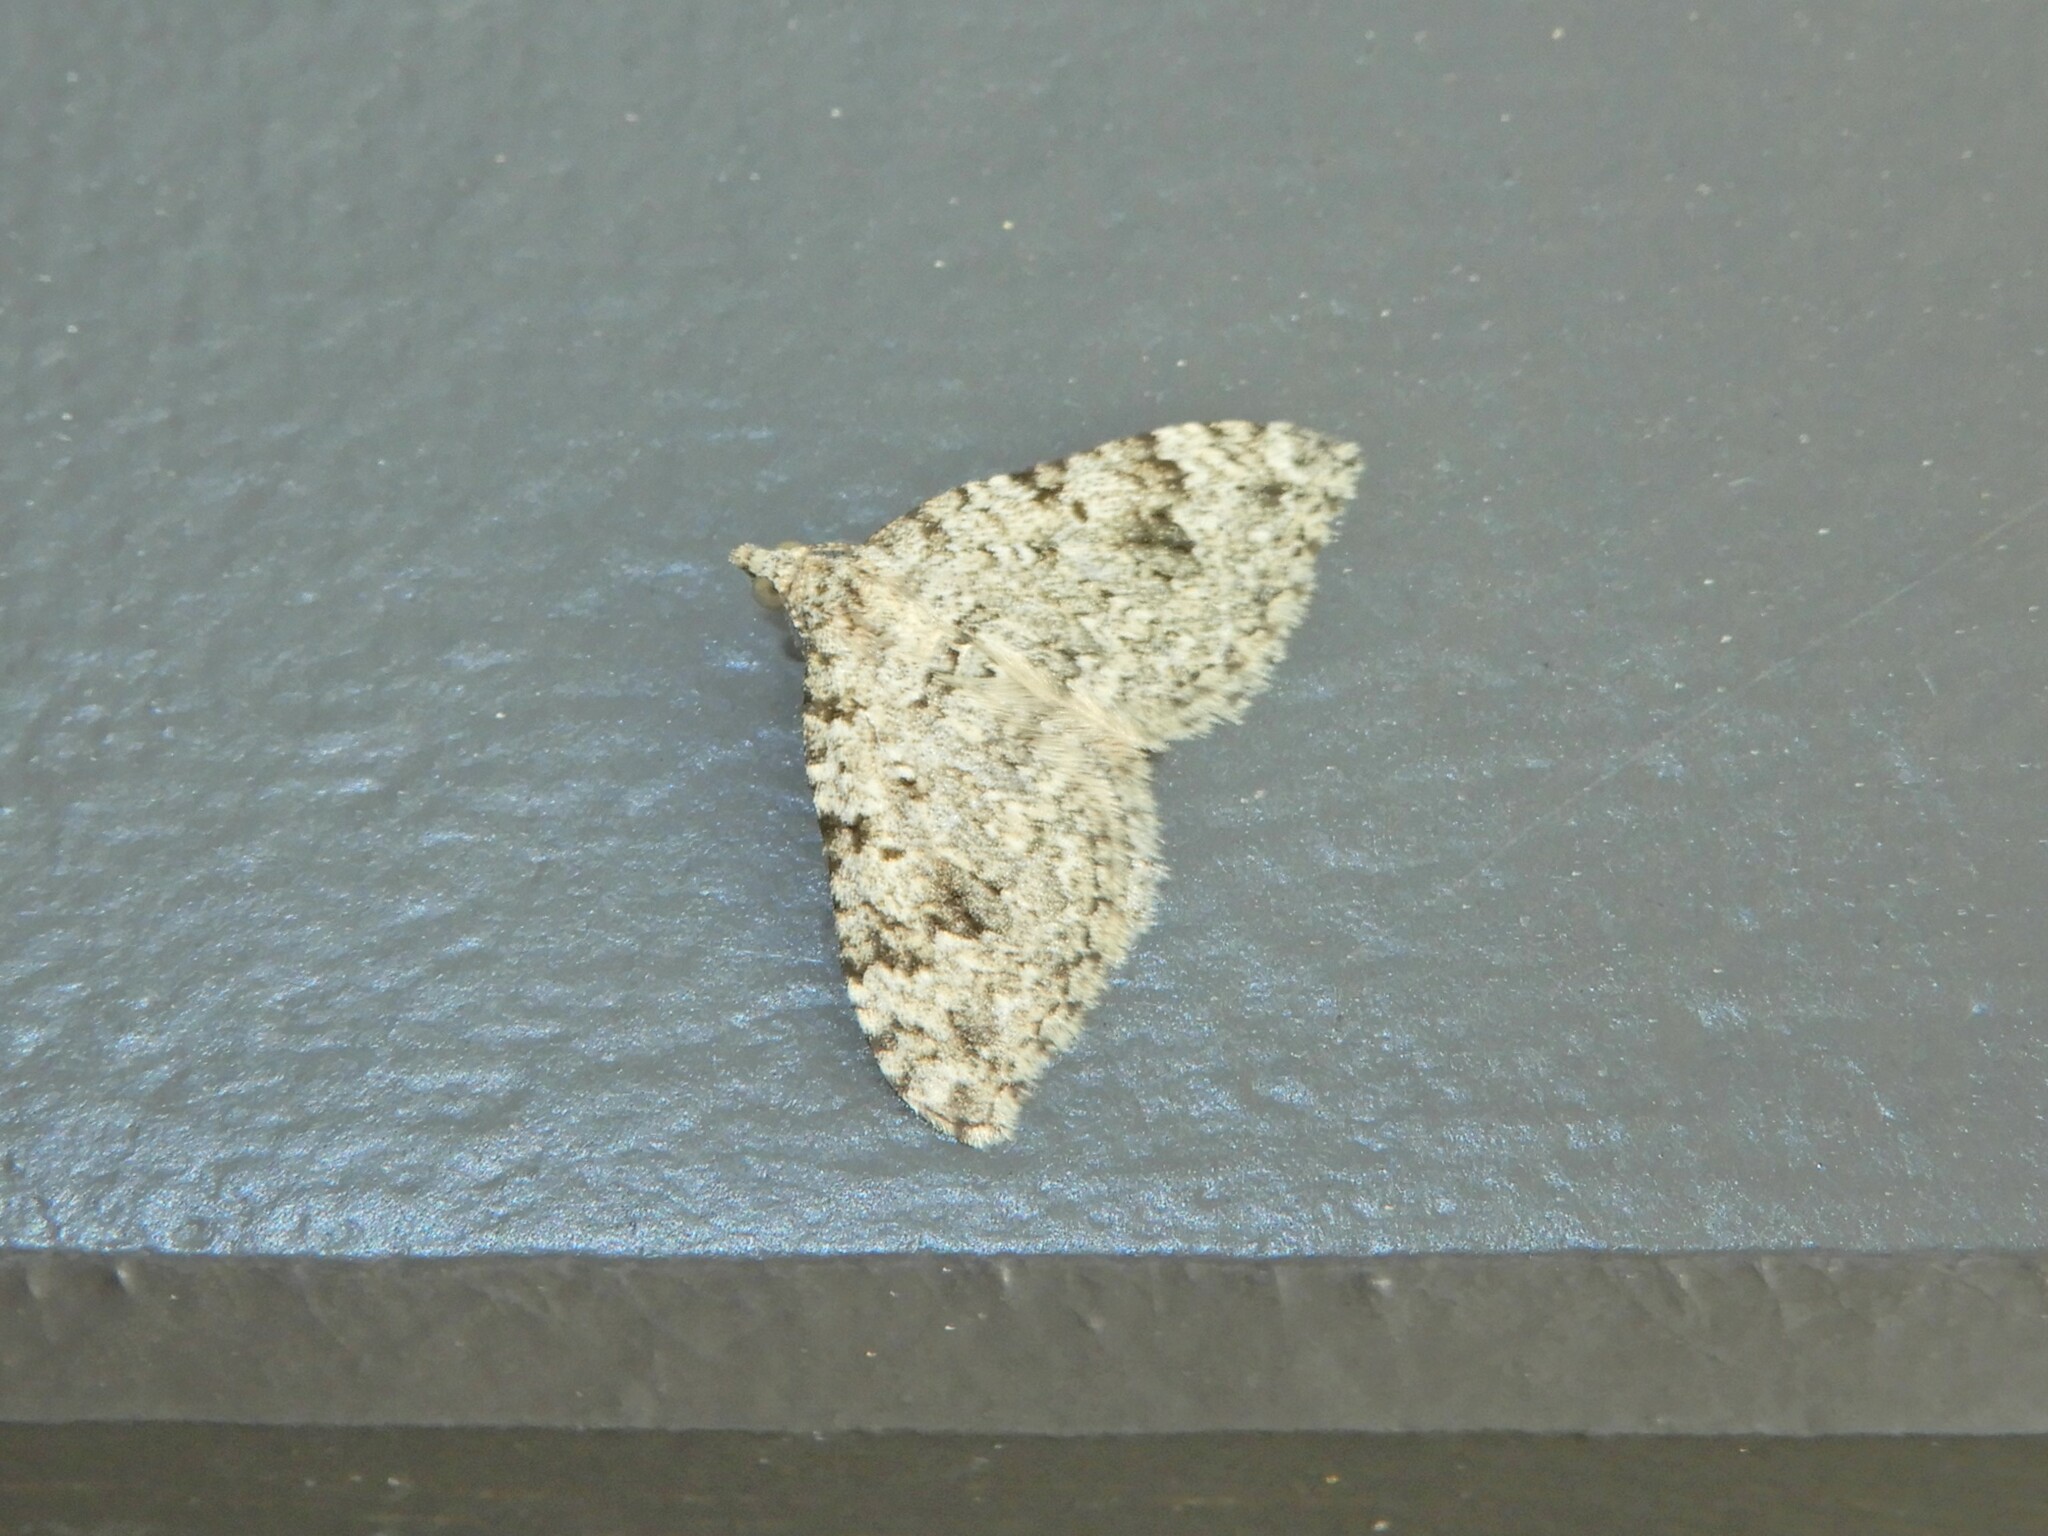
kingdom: Animalia
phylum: Arthropoda
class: Insecta
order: Lepidoptera
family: Geometridae
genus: Helastia
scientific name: Helastia cinerearia
